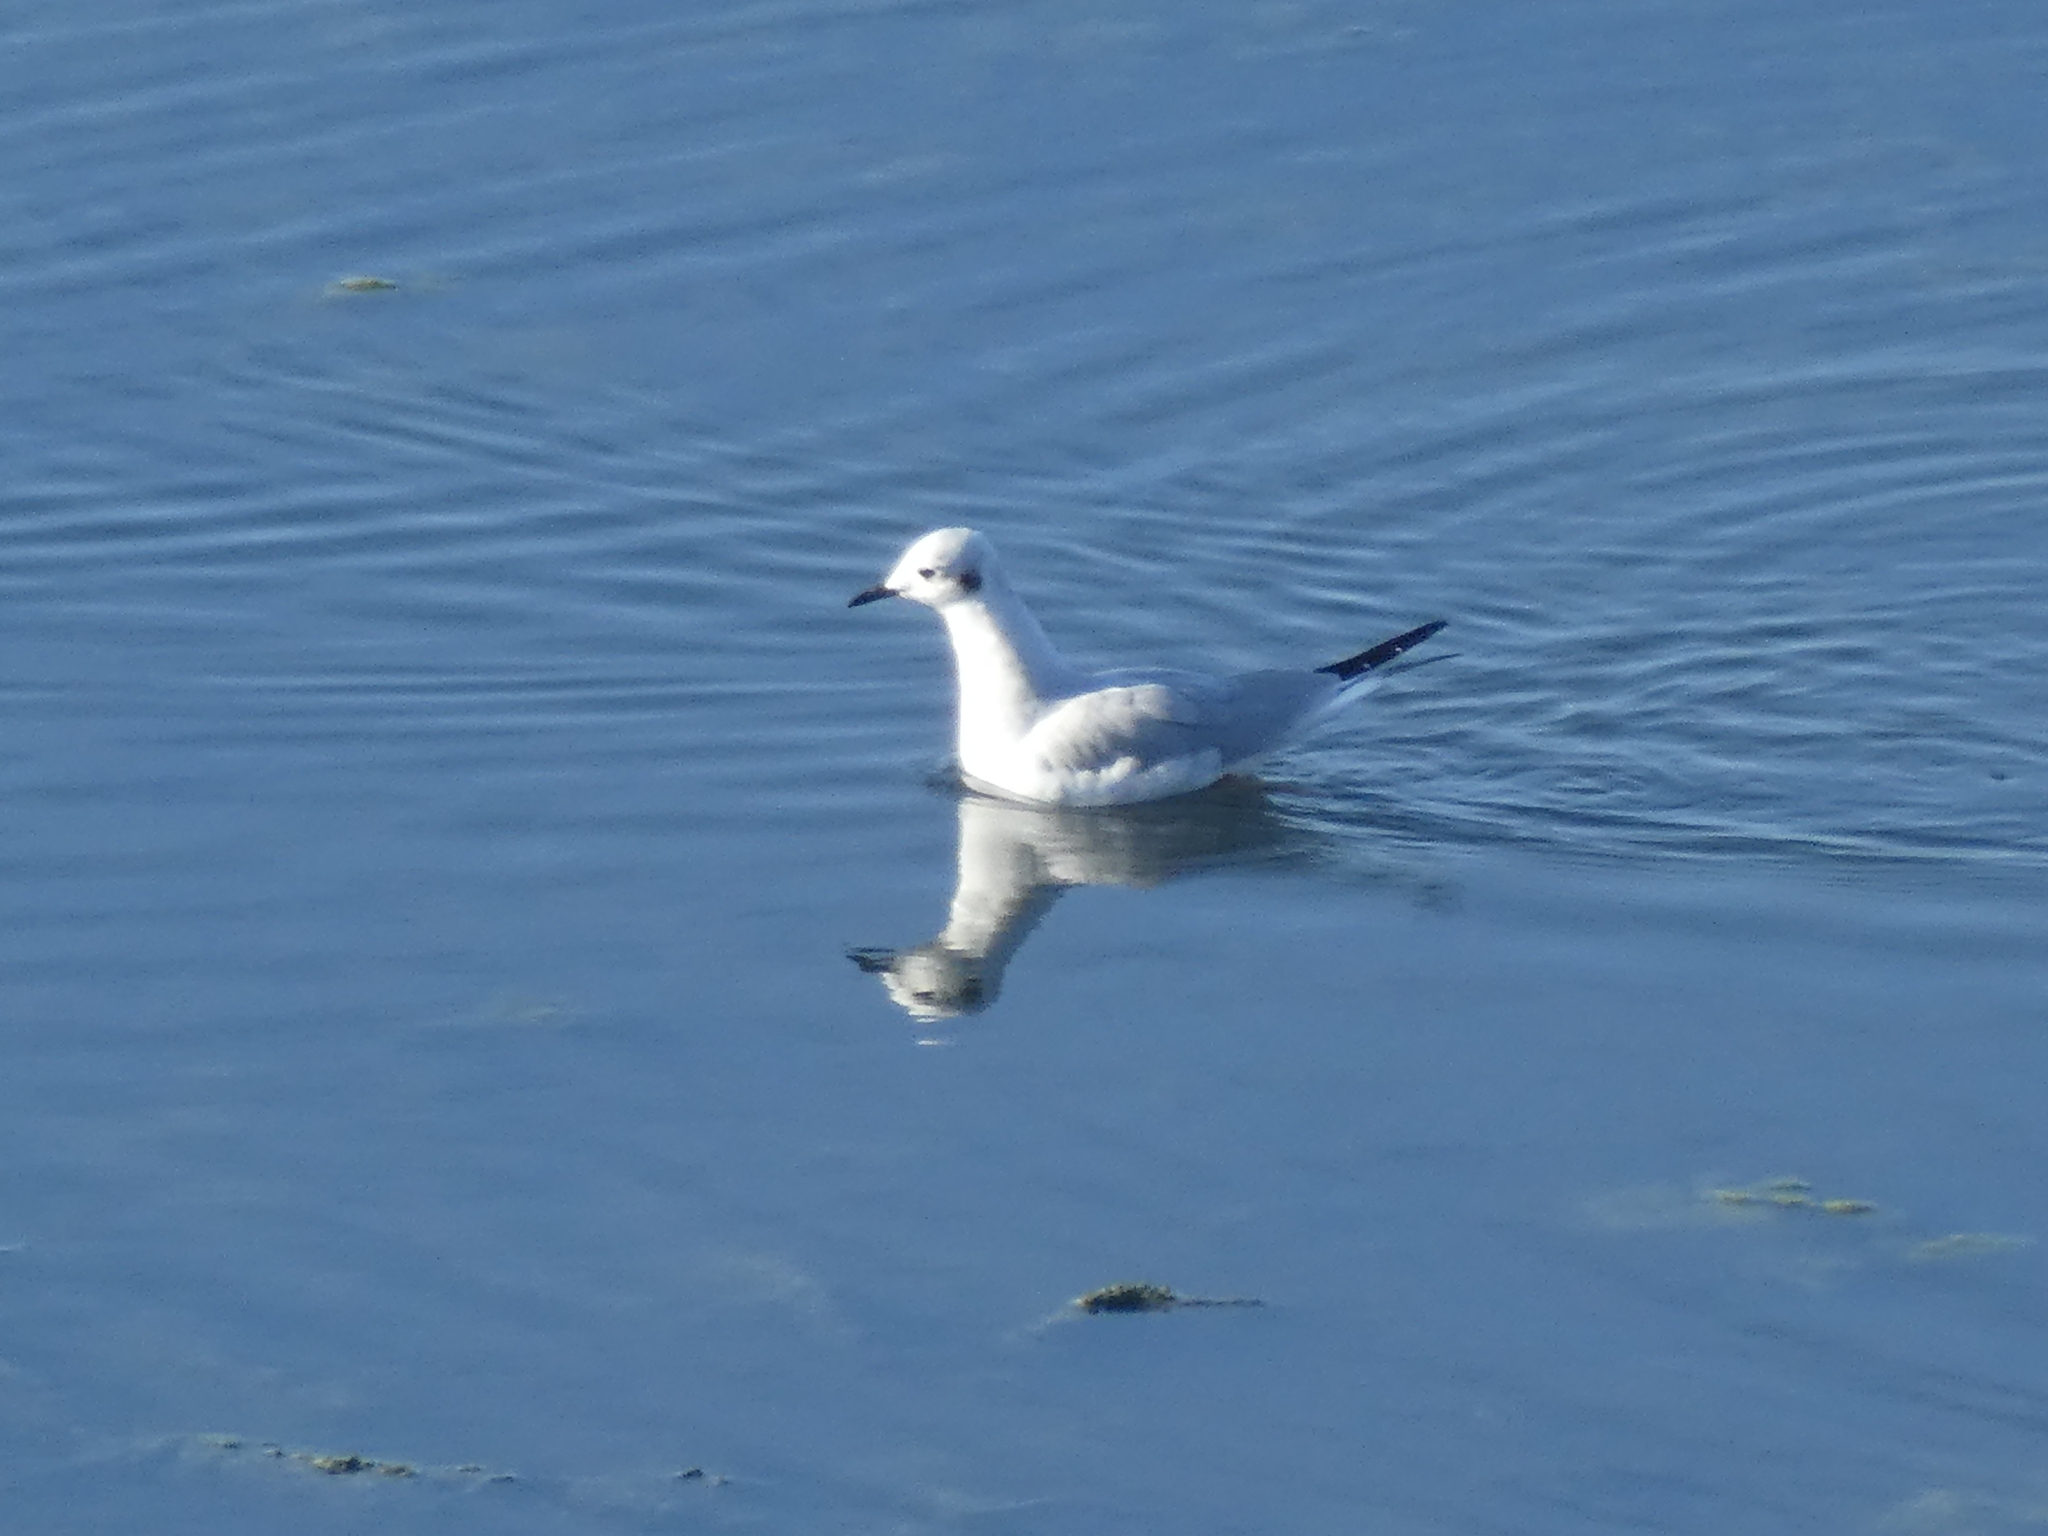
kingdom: Animalia
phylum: Chordata
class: Aves
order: Charadriiformes
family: Laridae
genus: Chroicocephalus
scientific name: Chroicocephalus philadelphia
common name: Bonaparte's gull
